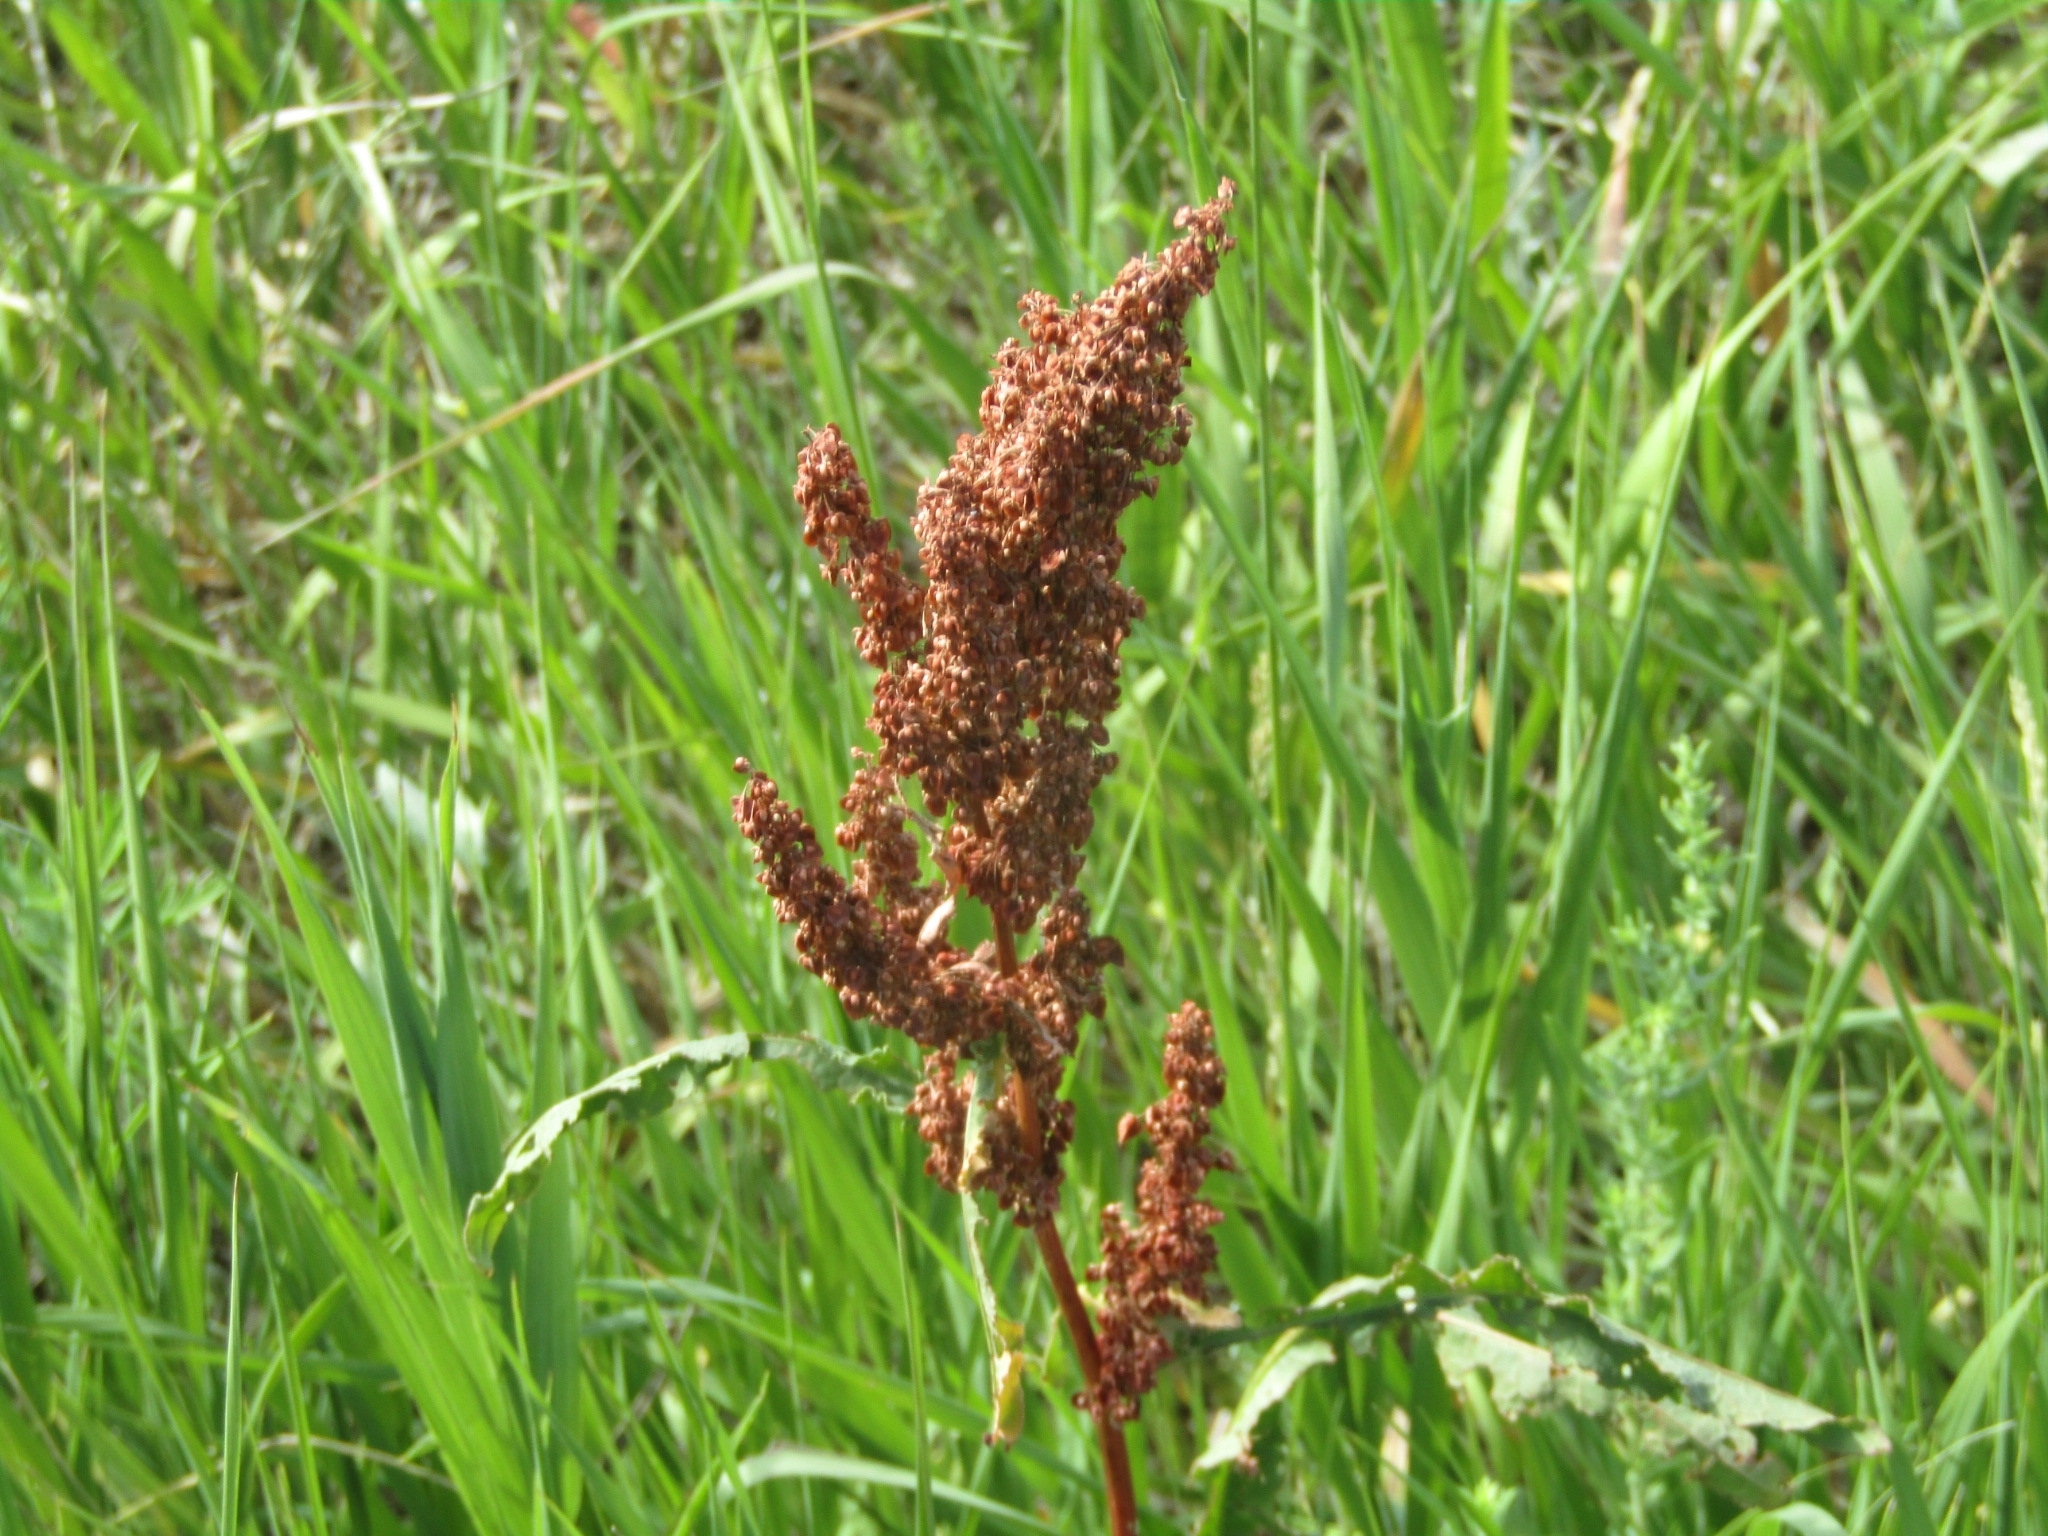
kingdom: Plantae
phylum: Tracheophyta
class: Magnoliopsida
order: Caryophyllales
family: Polygonaceae
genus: Rumex
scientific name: Rumex crispus
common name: Curled dock
